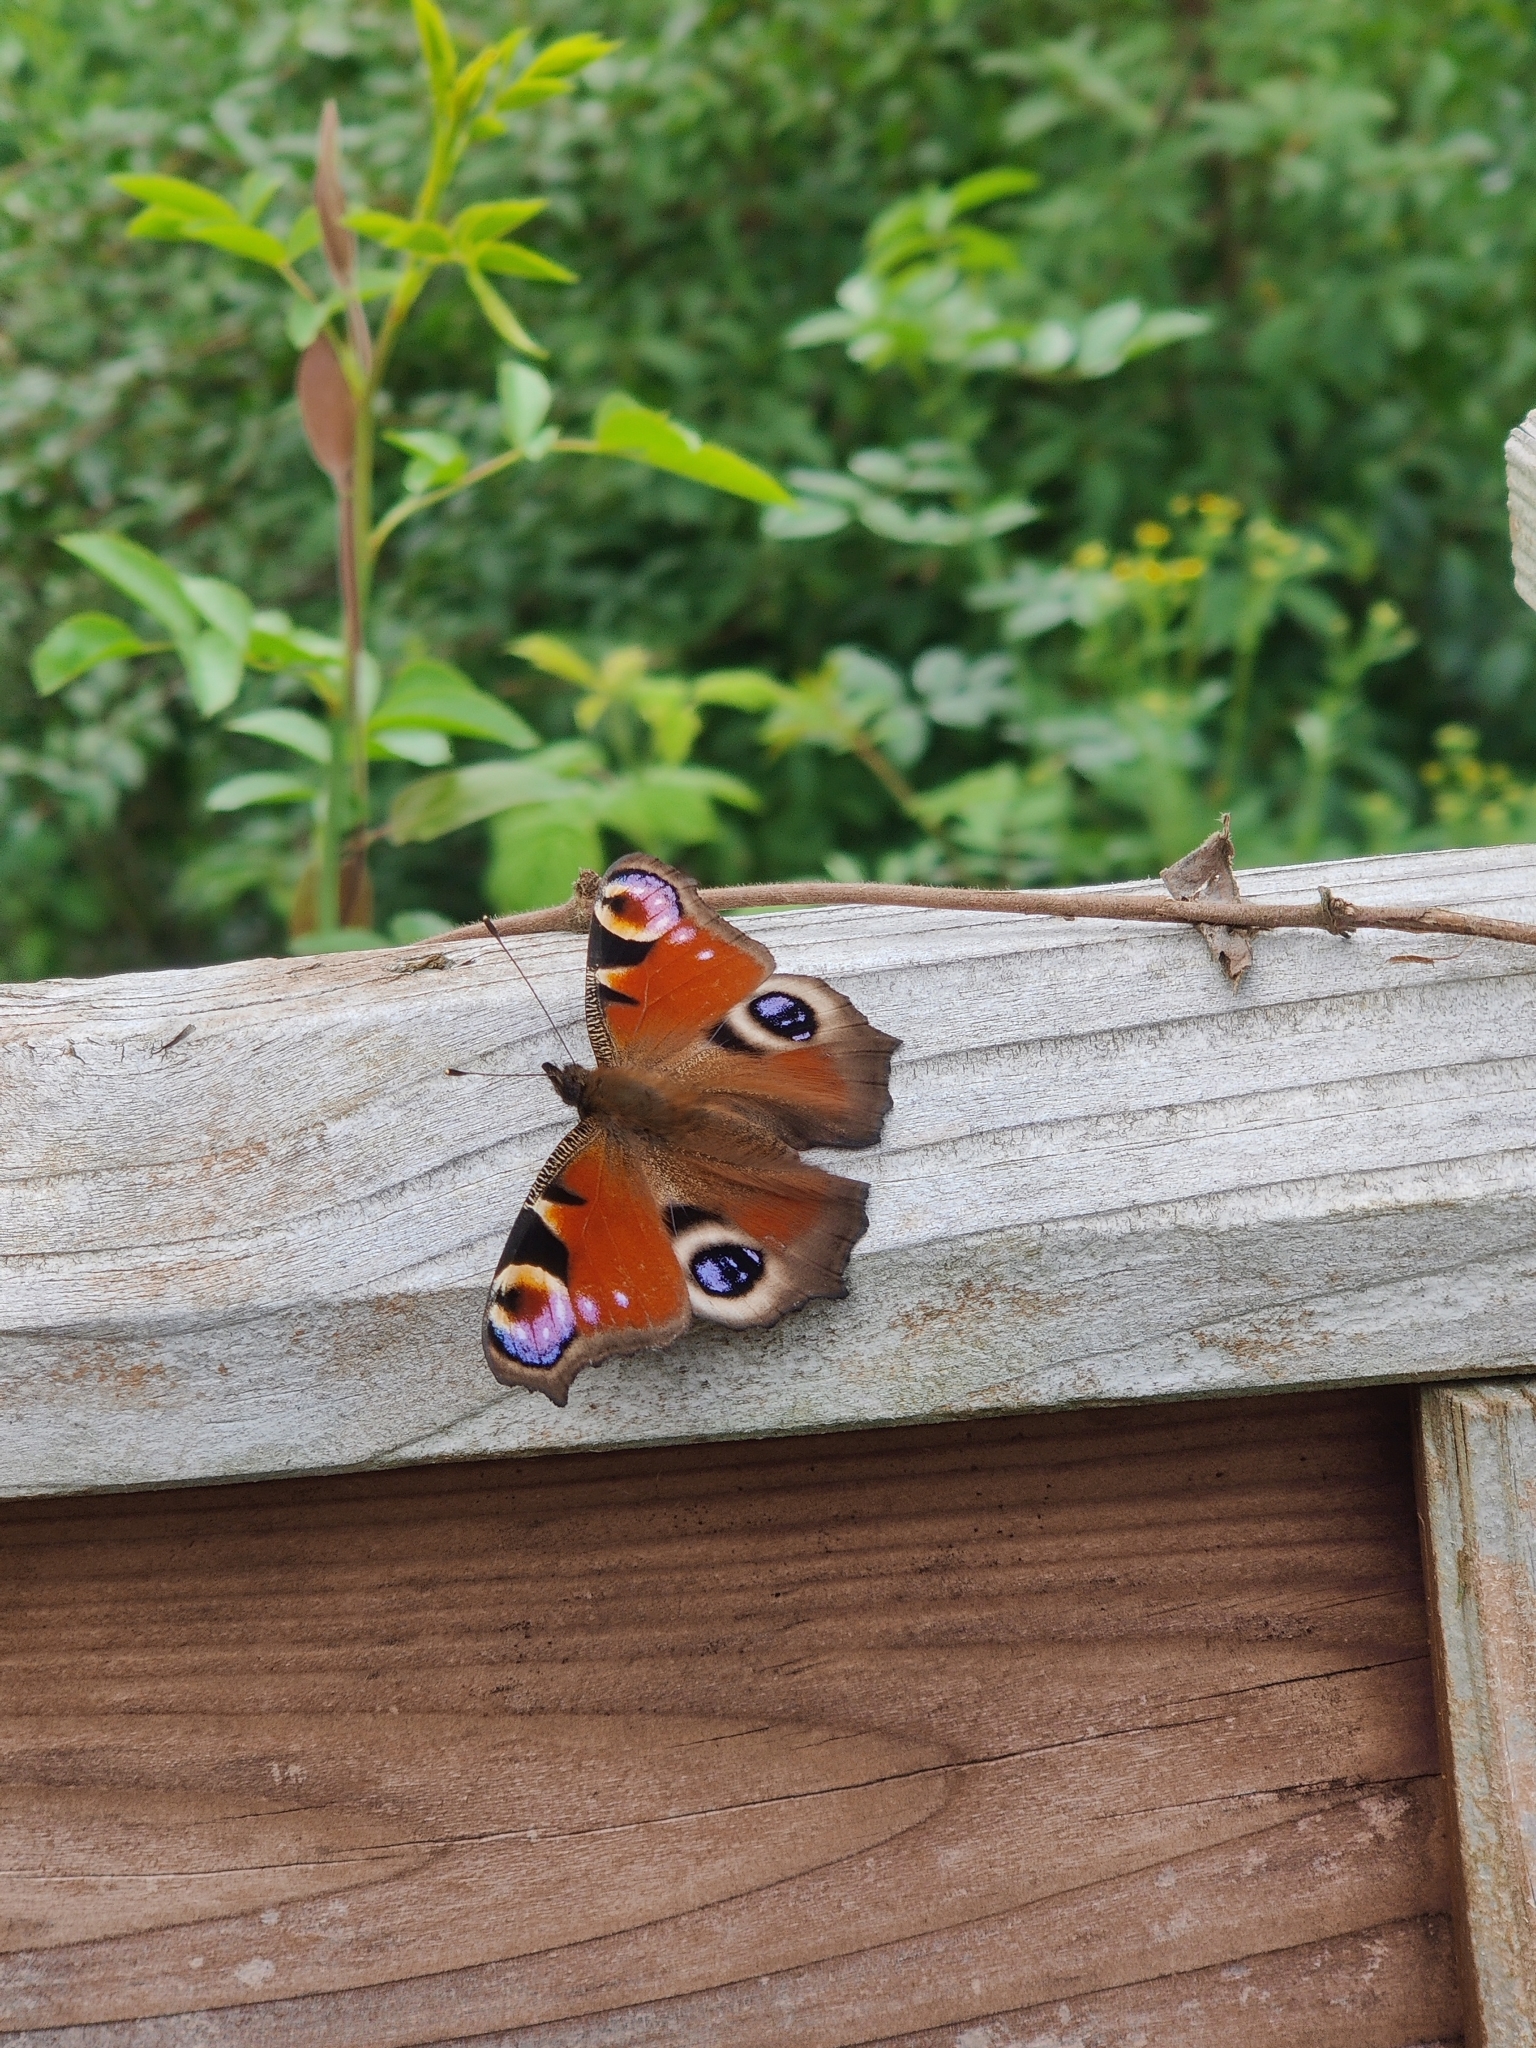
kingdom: Animalia
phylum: Arthropoda
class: Insecta
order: Lepidoptera
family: Nymphalidae
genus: Aglais
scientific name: Aglais io
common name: Peacock
